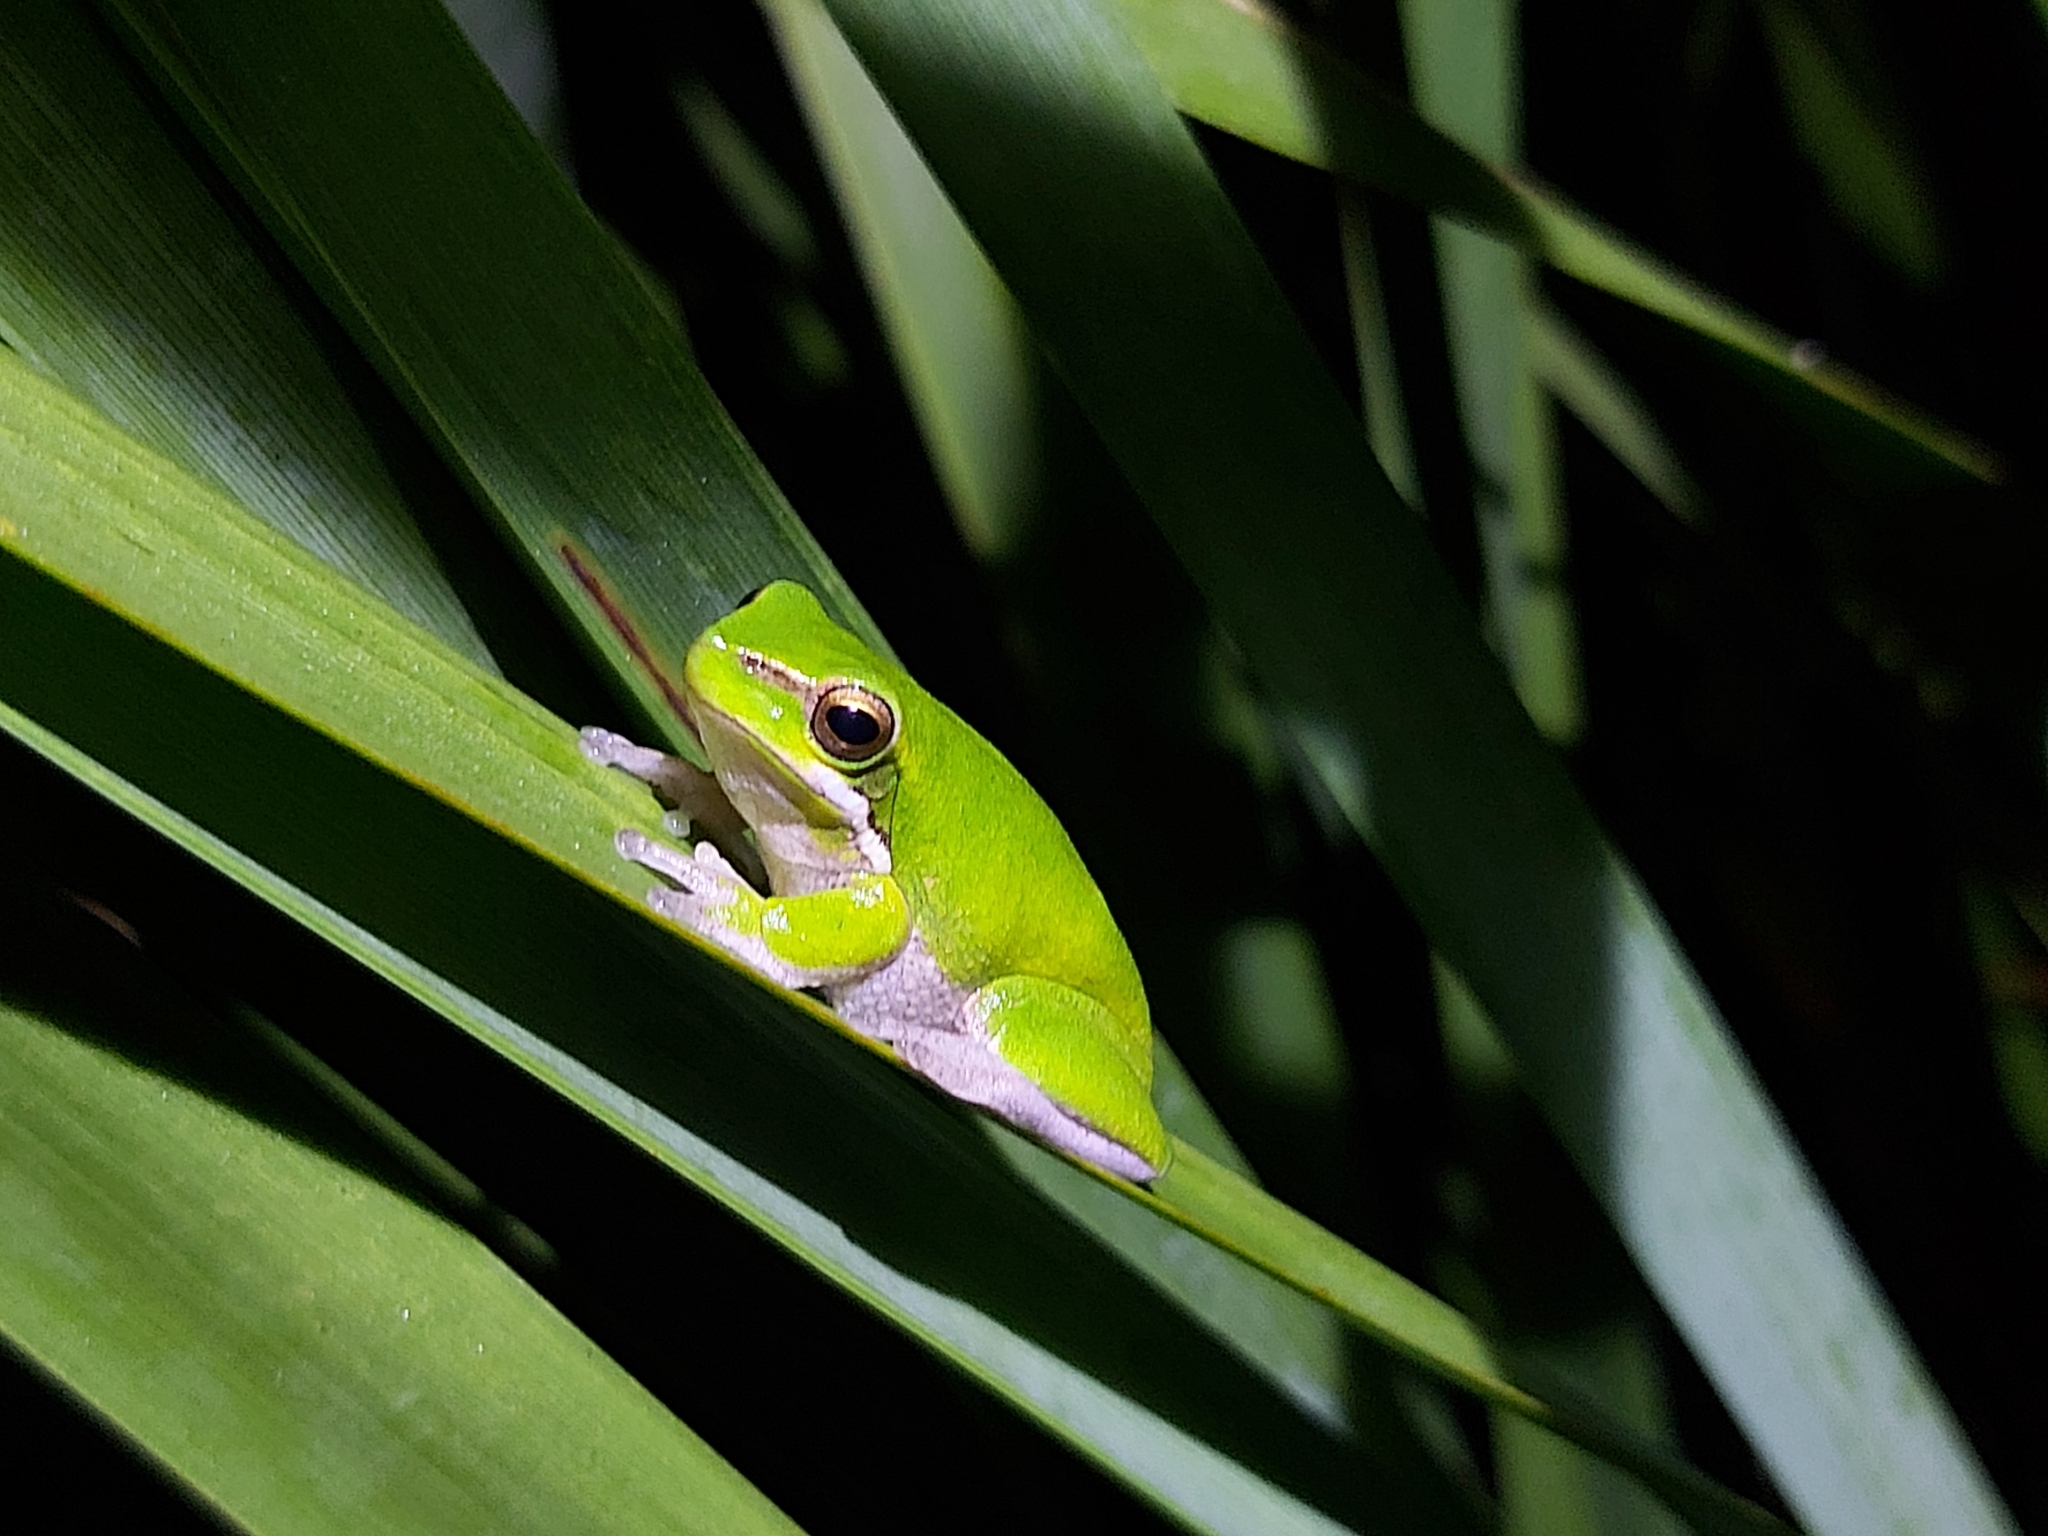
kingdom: Animalia
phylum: Chordata
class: Amphibia
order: Anura
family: Pelodryadidae
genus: Litoria
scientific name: Litoria fallax
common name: Eastern dwarf treefrog
